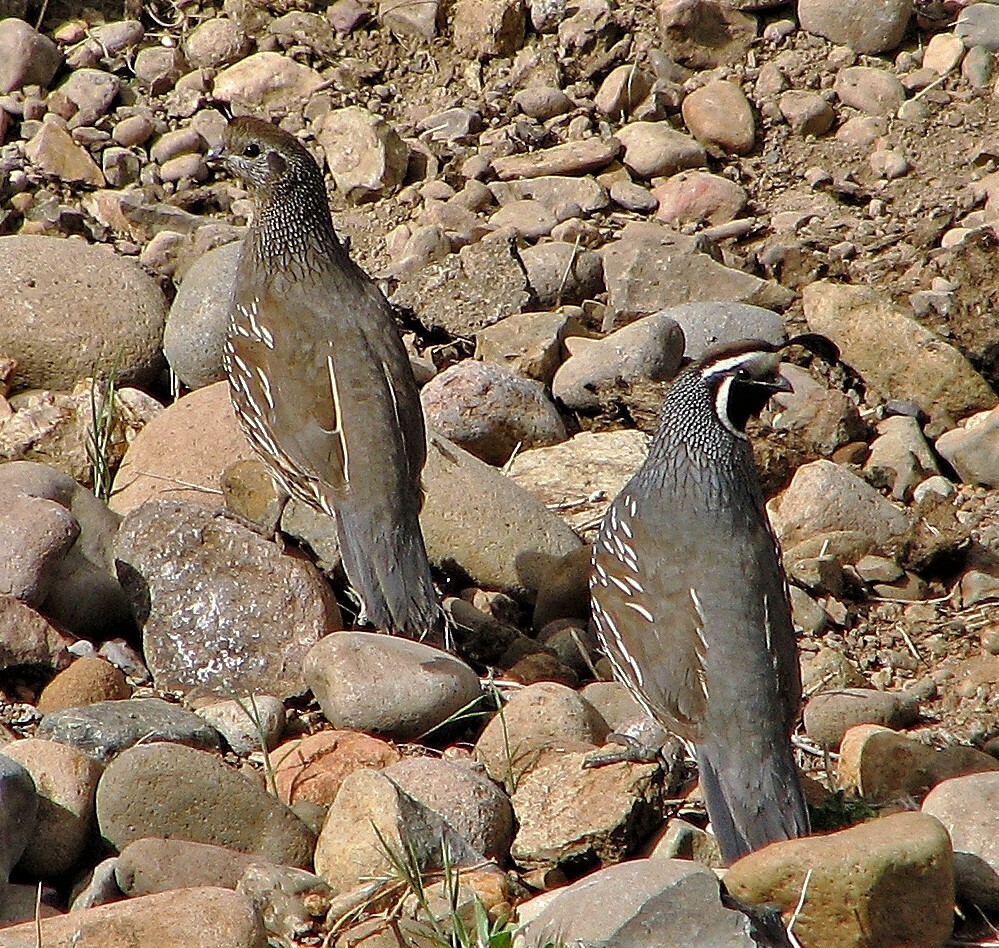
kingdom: Animalia
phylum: Chordata
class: Aves
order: Galliformes
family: Odontophoridae
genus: Callipepla
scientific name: Callipepla californica
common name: California quail
